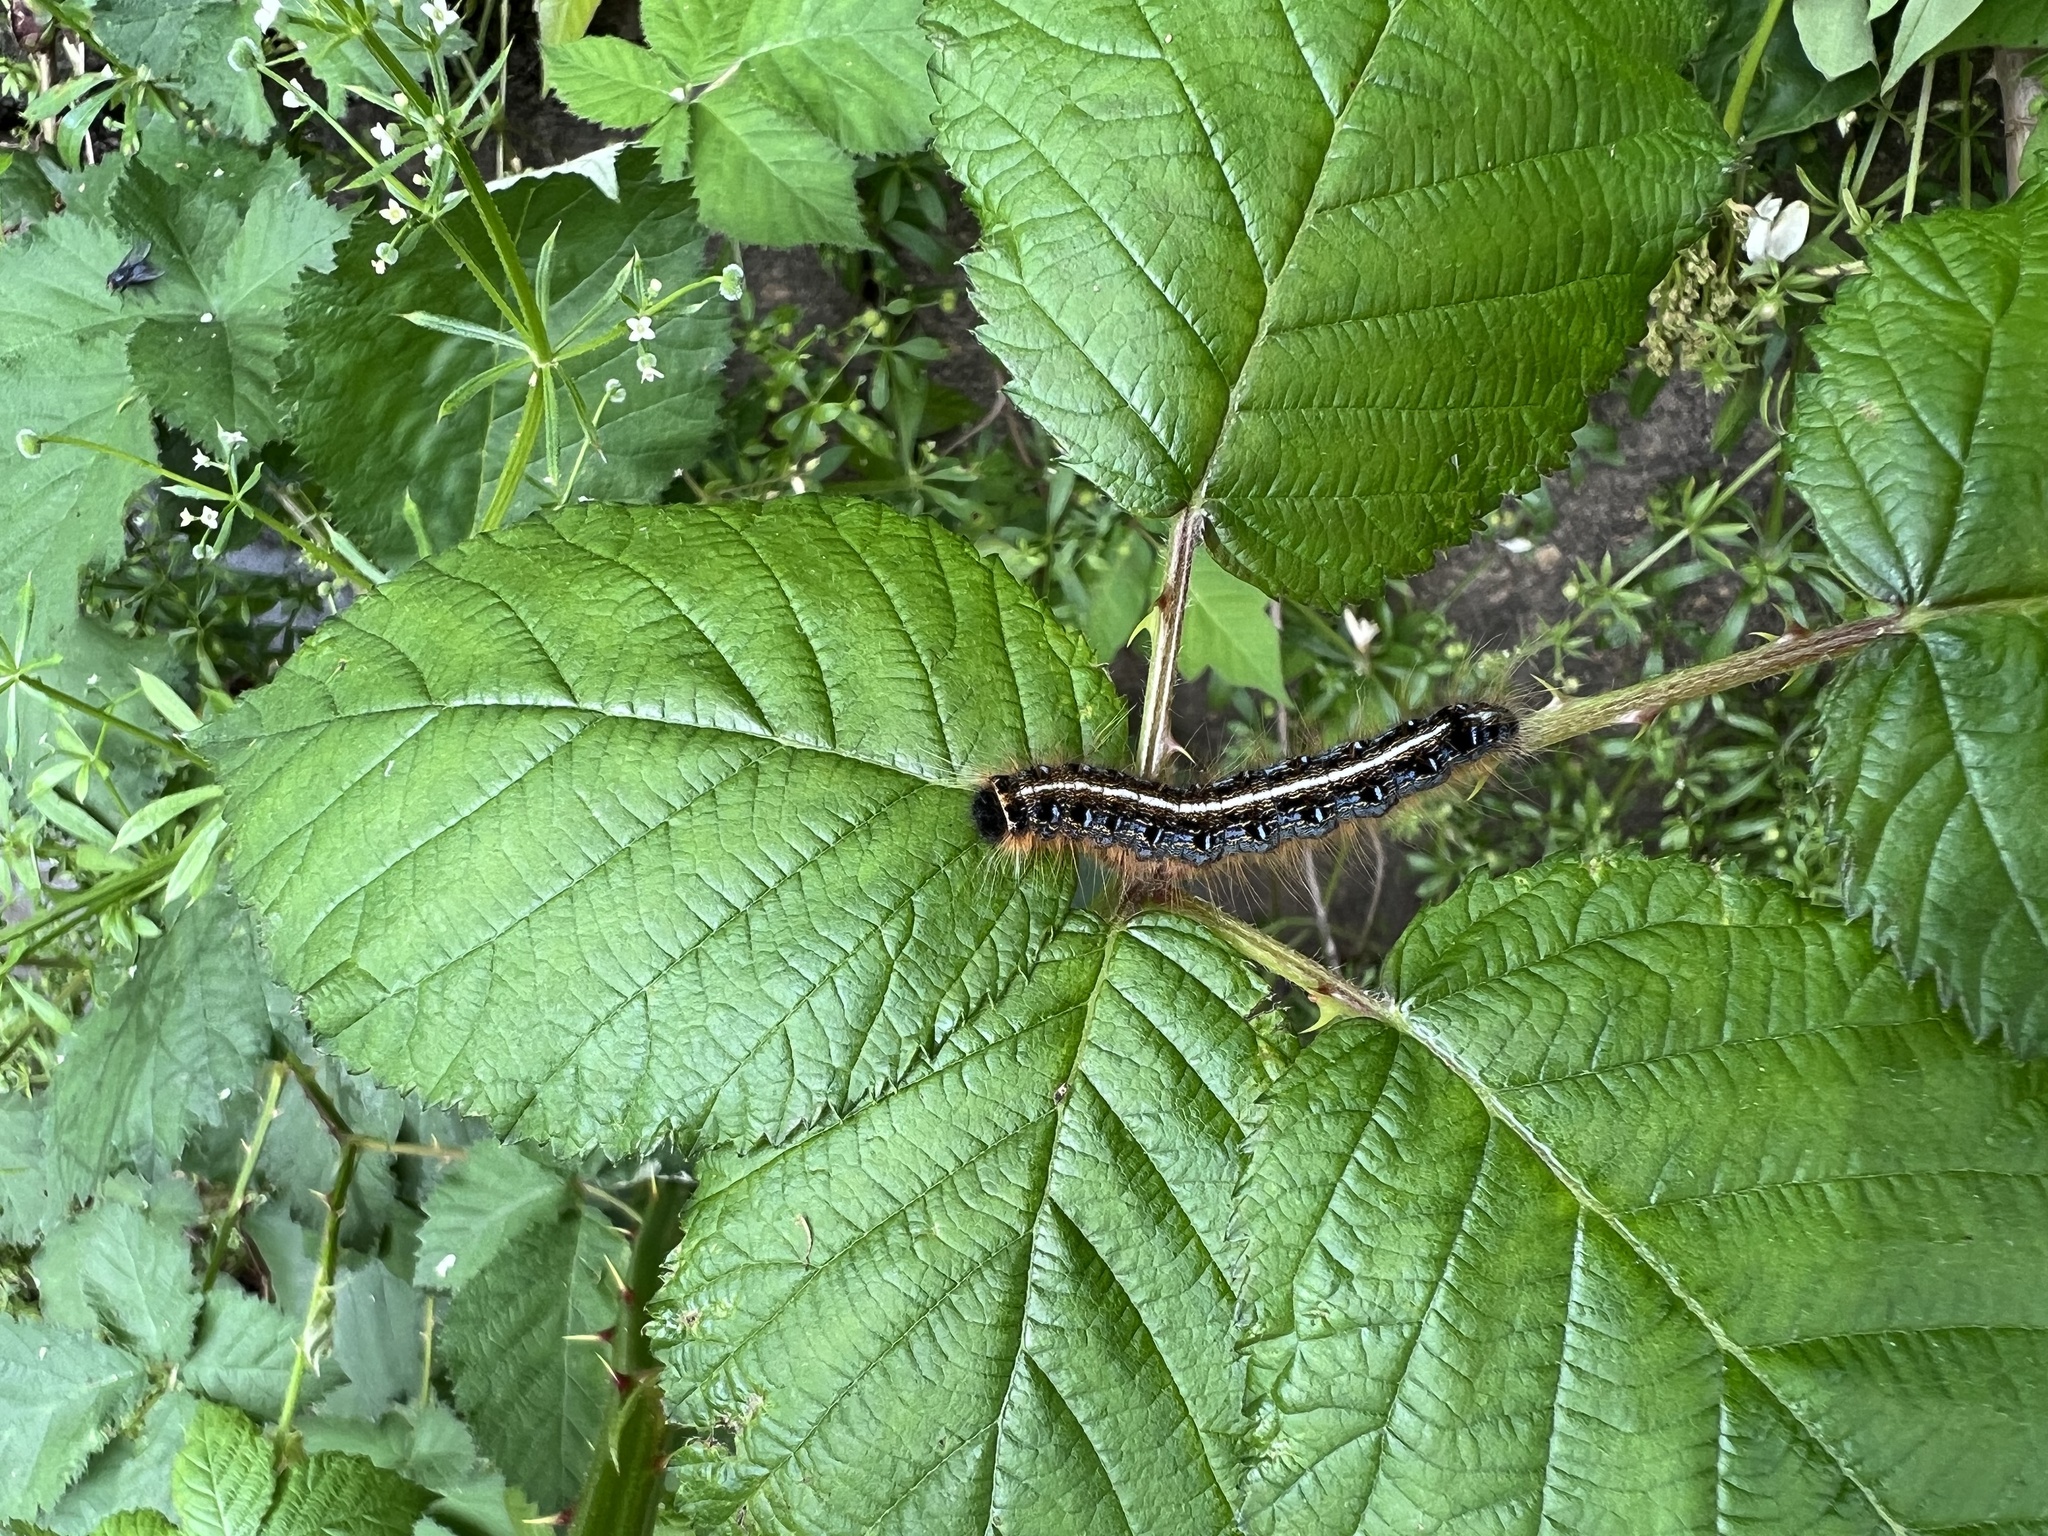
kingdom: Animalia
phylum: Arthropoda
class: Insecta
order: Lepidoptera
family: Lasiocampidae
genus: Malacosoma
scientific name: Malacosoma americana
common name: Eastern tent caterpillar moth
